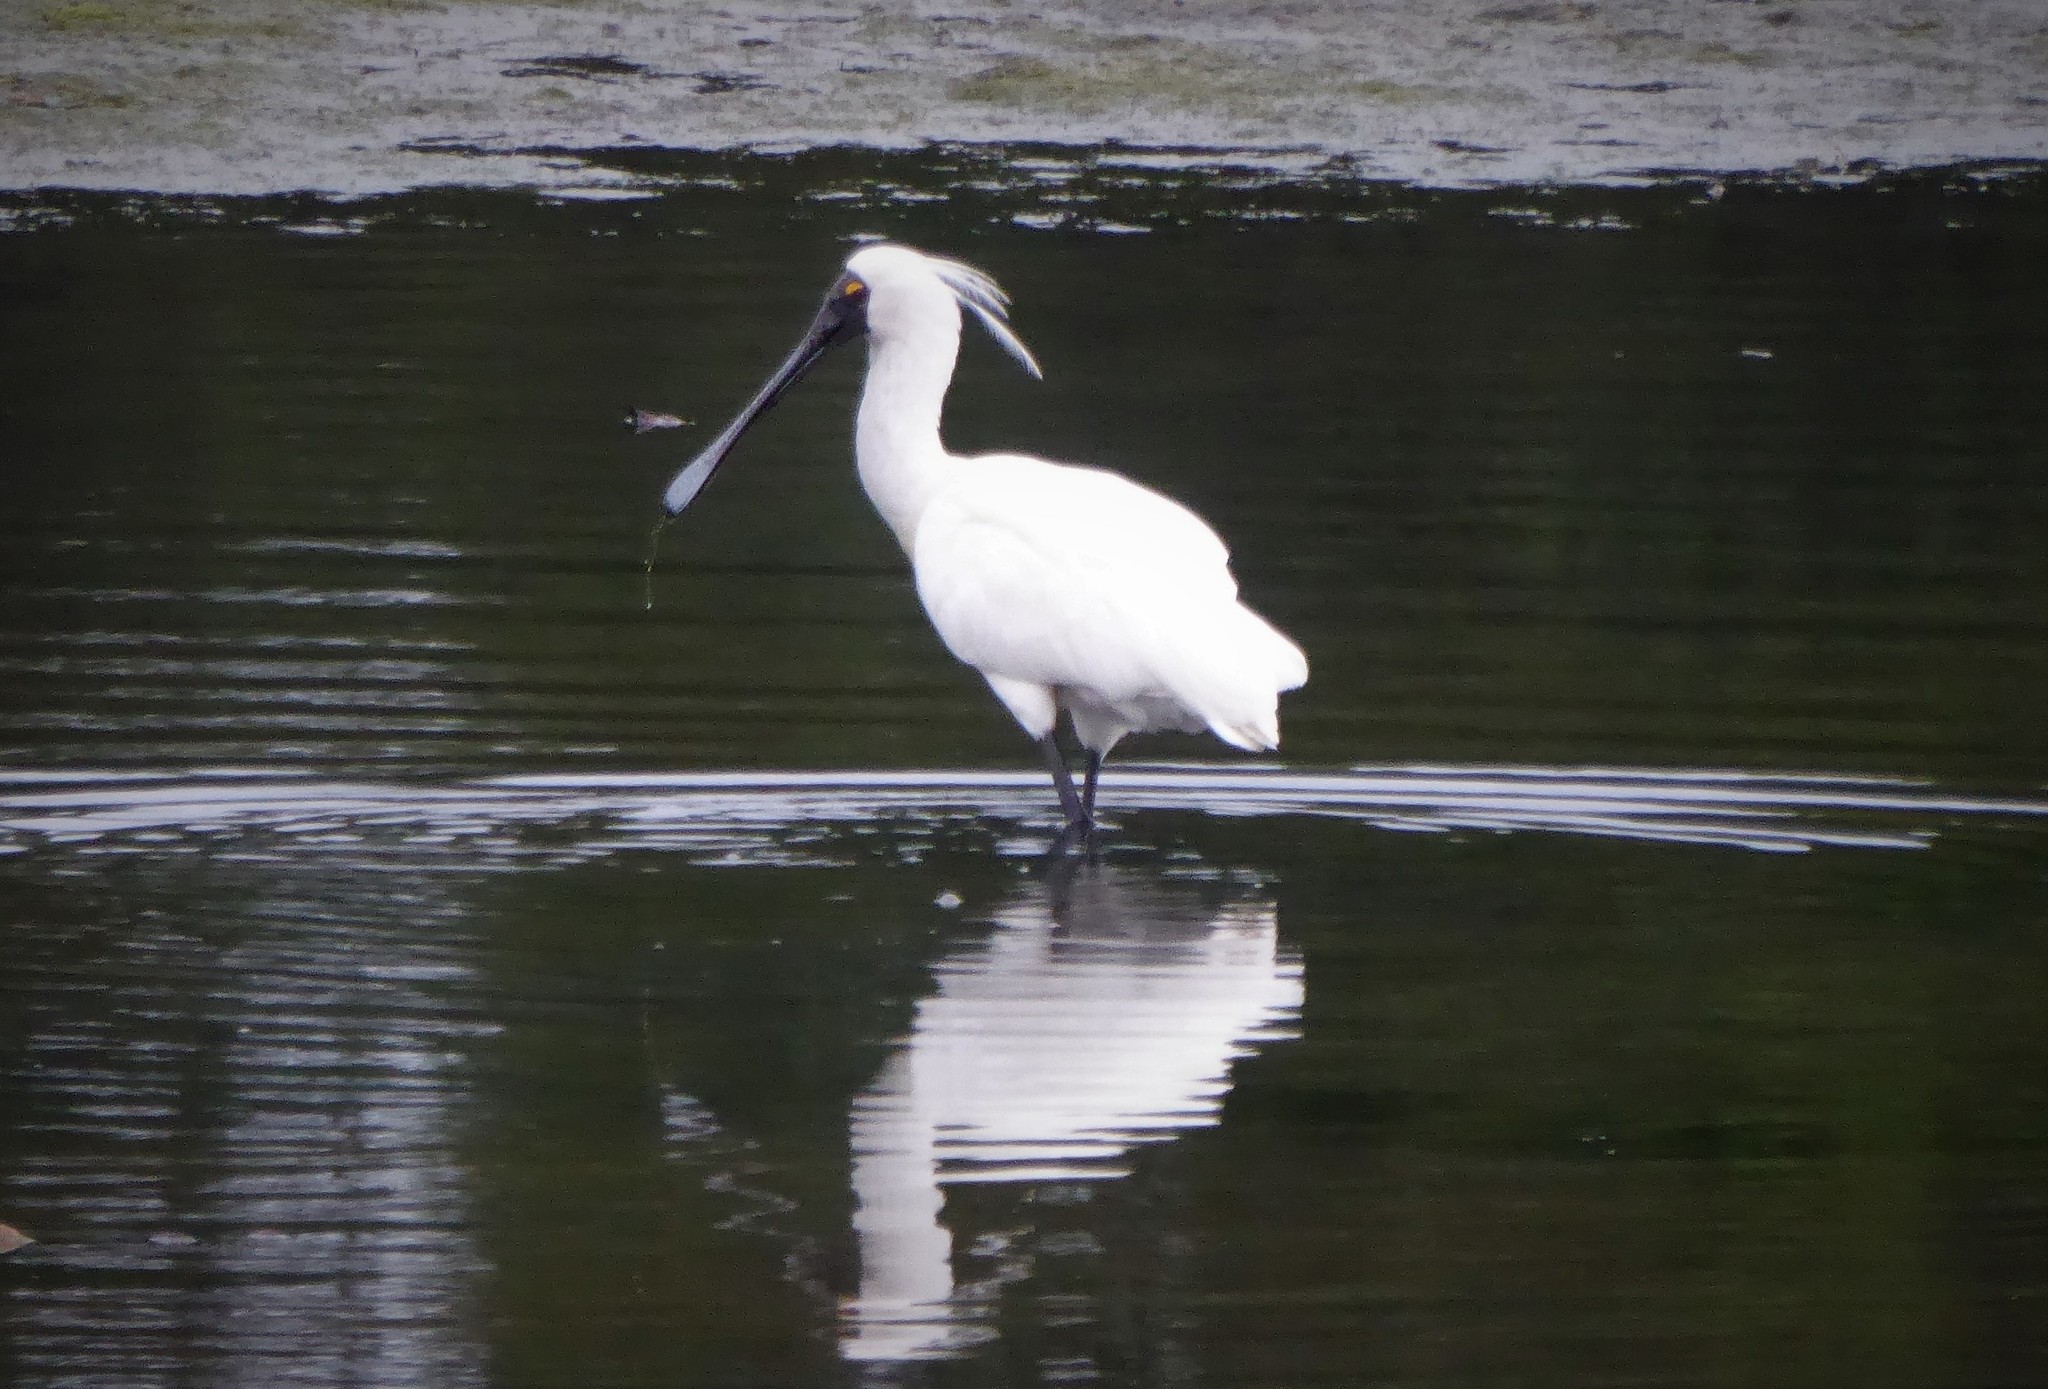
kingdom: Animalia
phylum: Chordata
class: Aves
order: Pelecaniformes
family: Threskiornithidae
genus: Platalea
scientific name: Platalea regia
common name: Royal spoonbill
